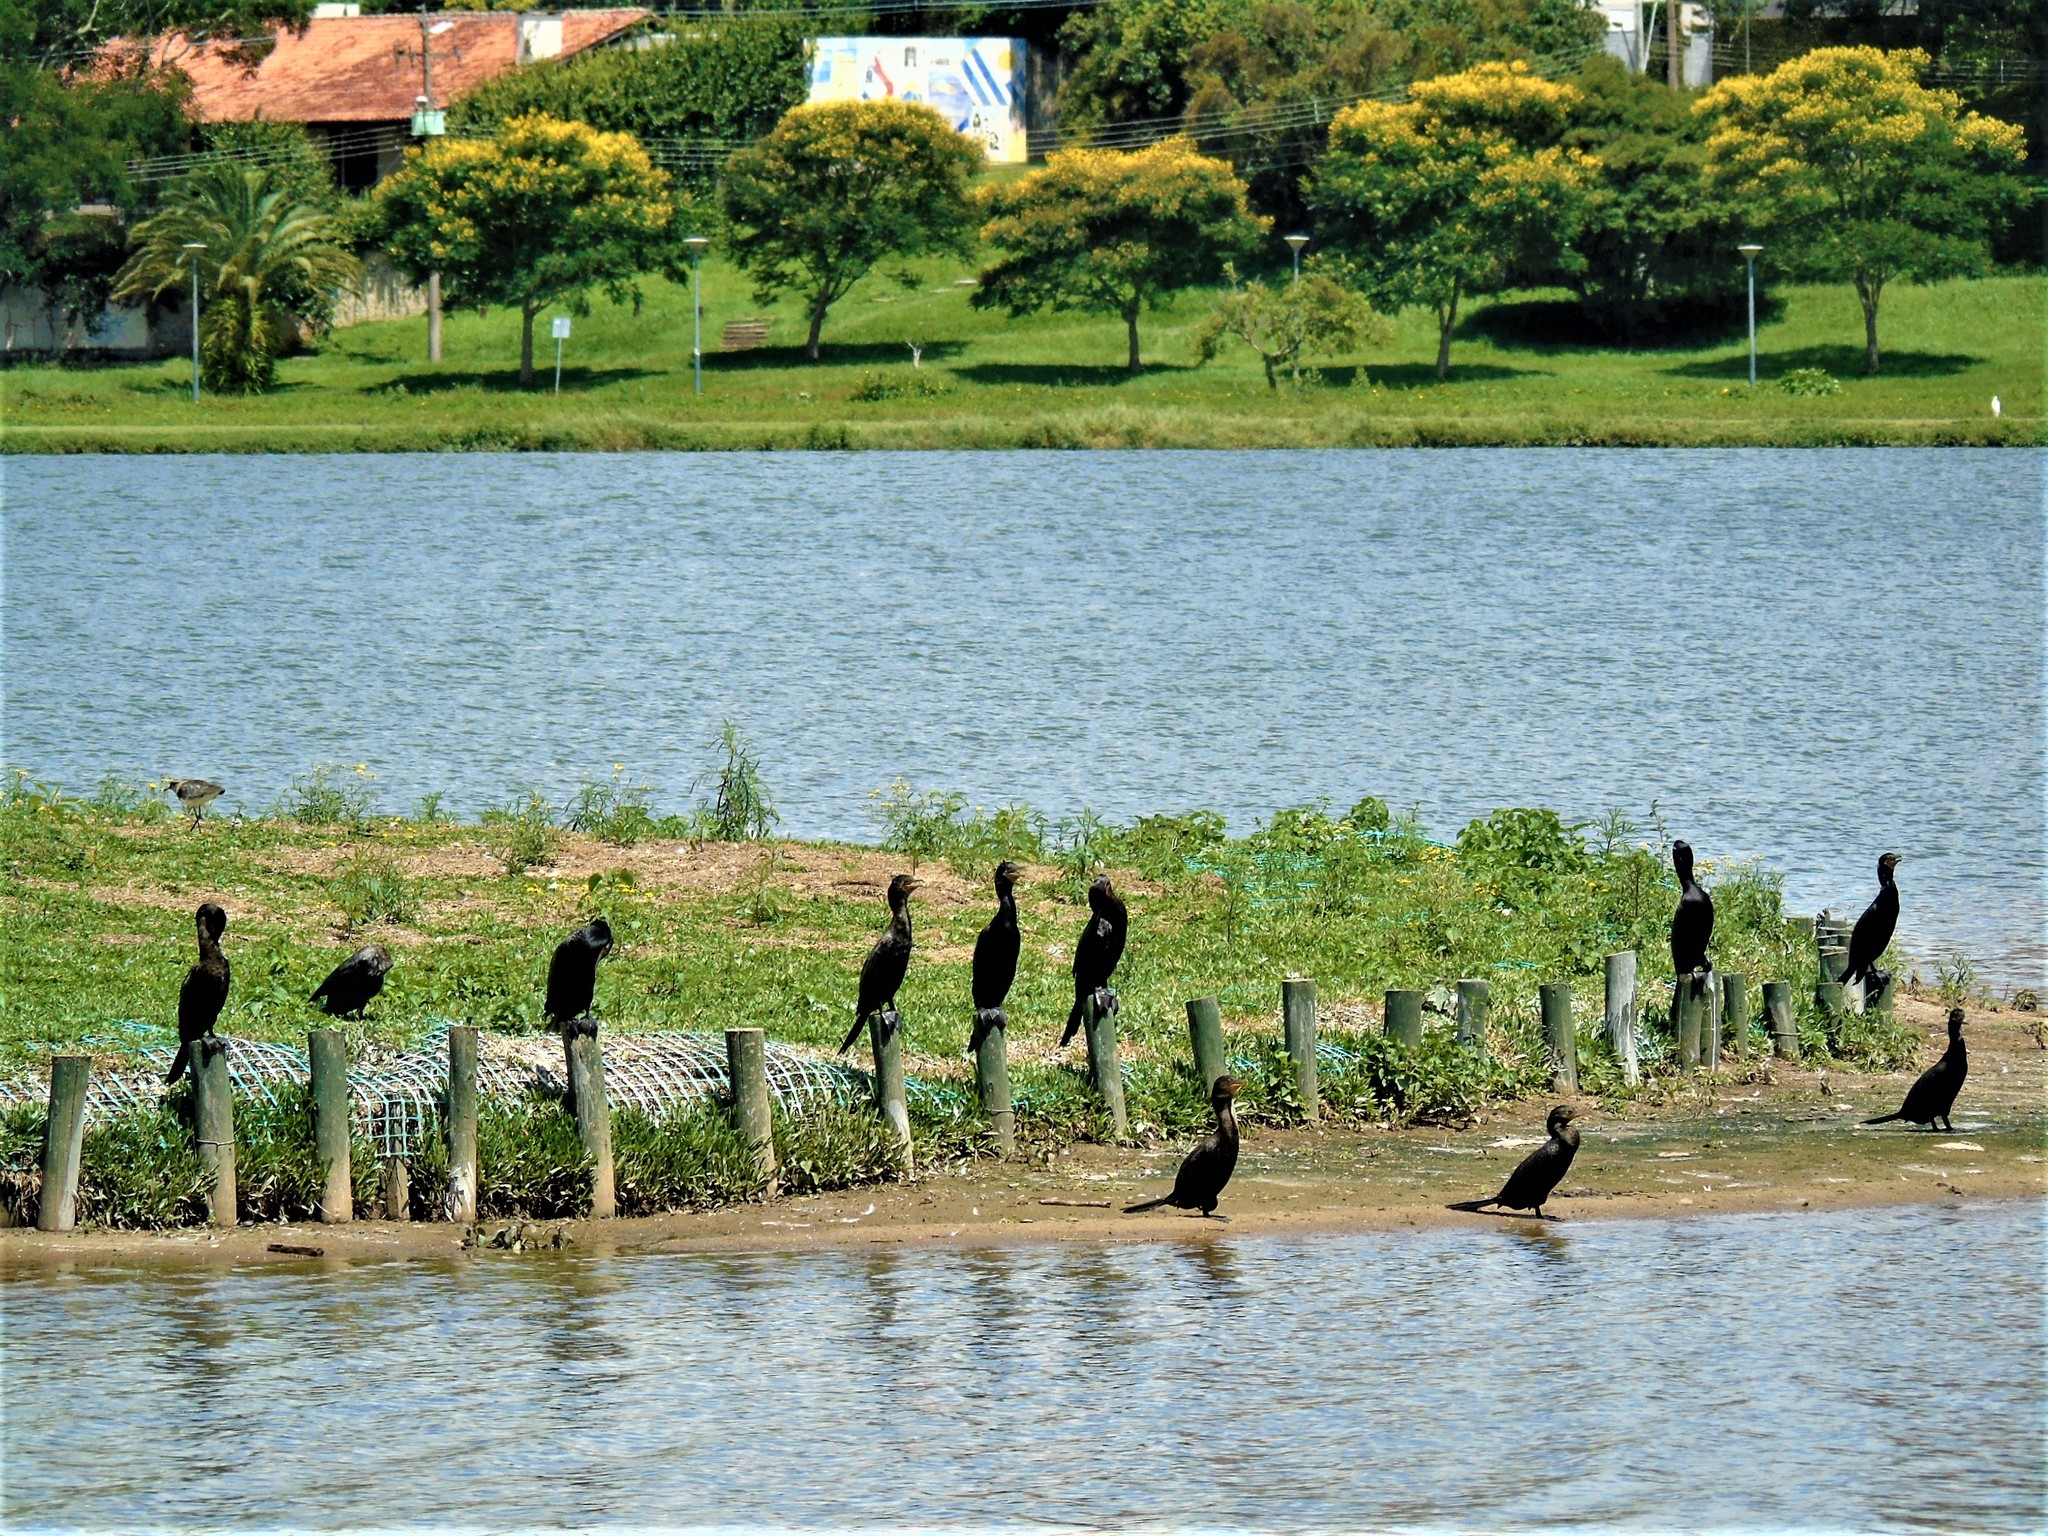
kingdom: Animalia
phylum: Chordata
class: Aves
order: Suliformes
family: Phalacrocoracidae
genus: Phalacrocorax
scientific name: Phalacrocorax brasilianus
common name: Neotropic cormorant
